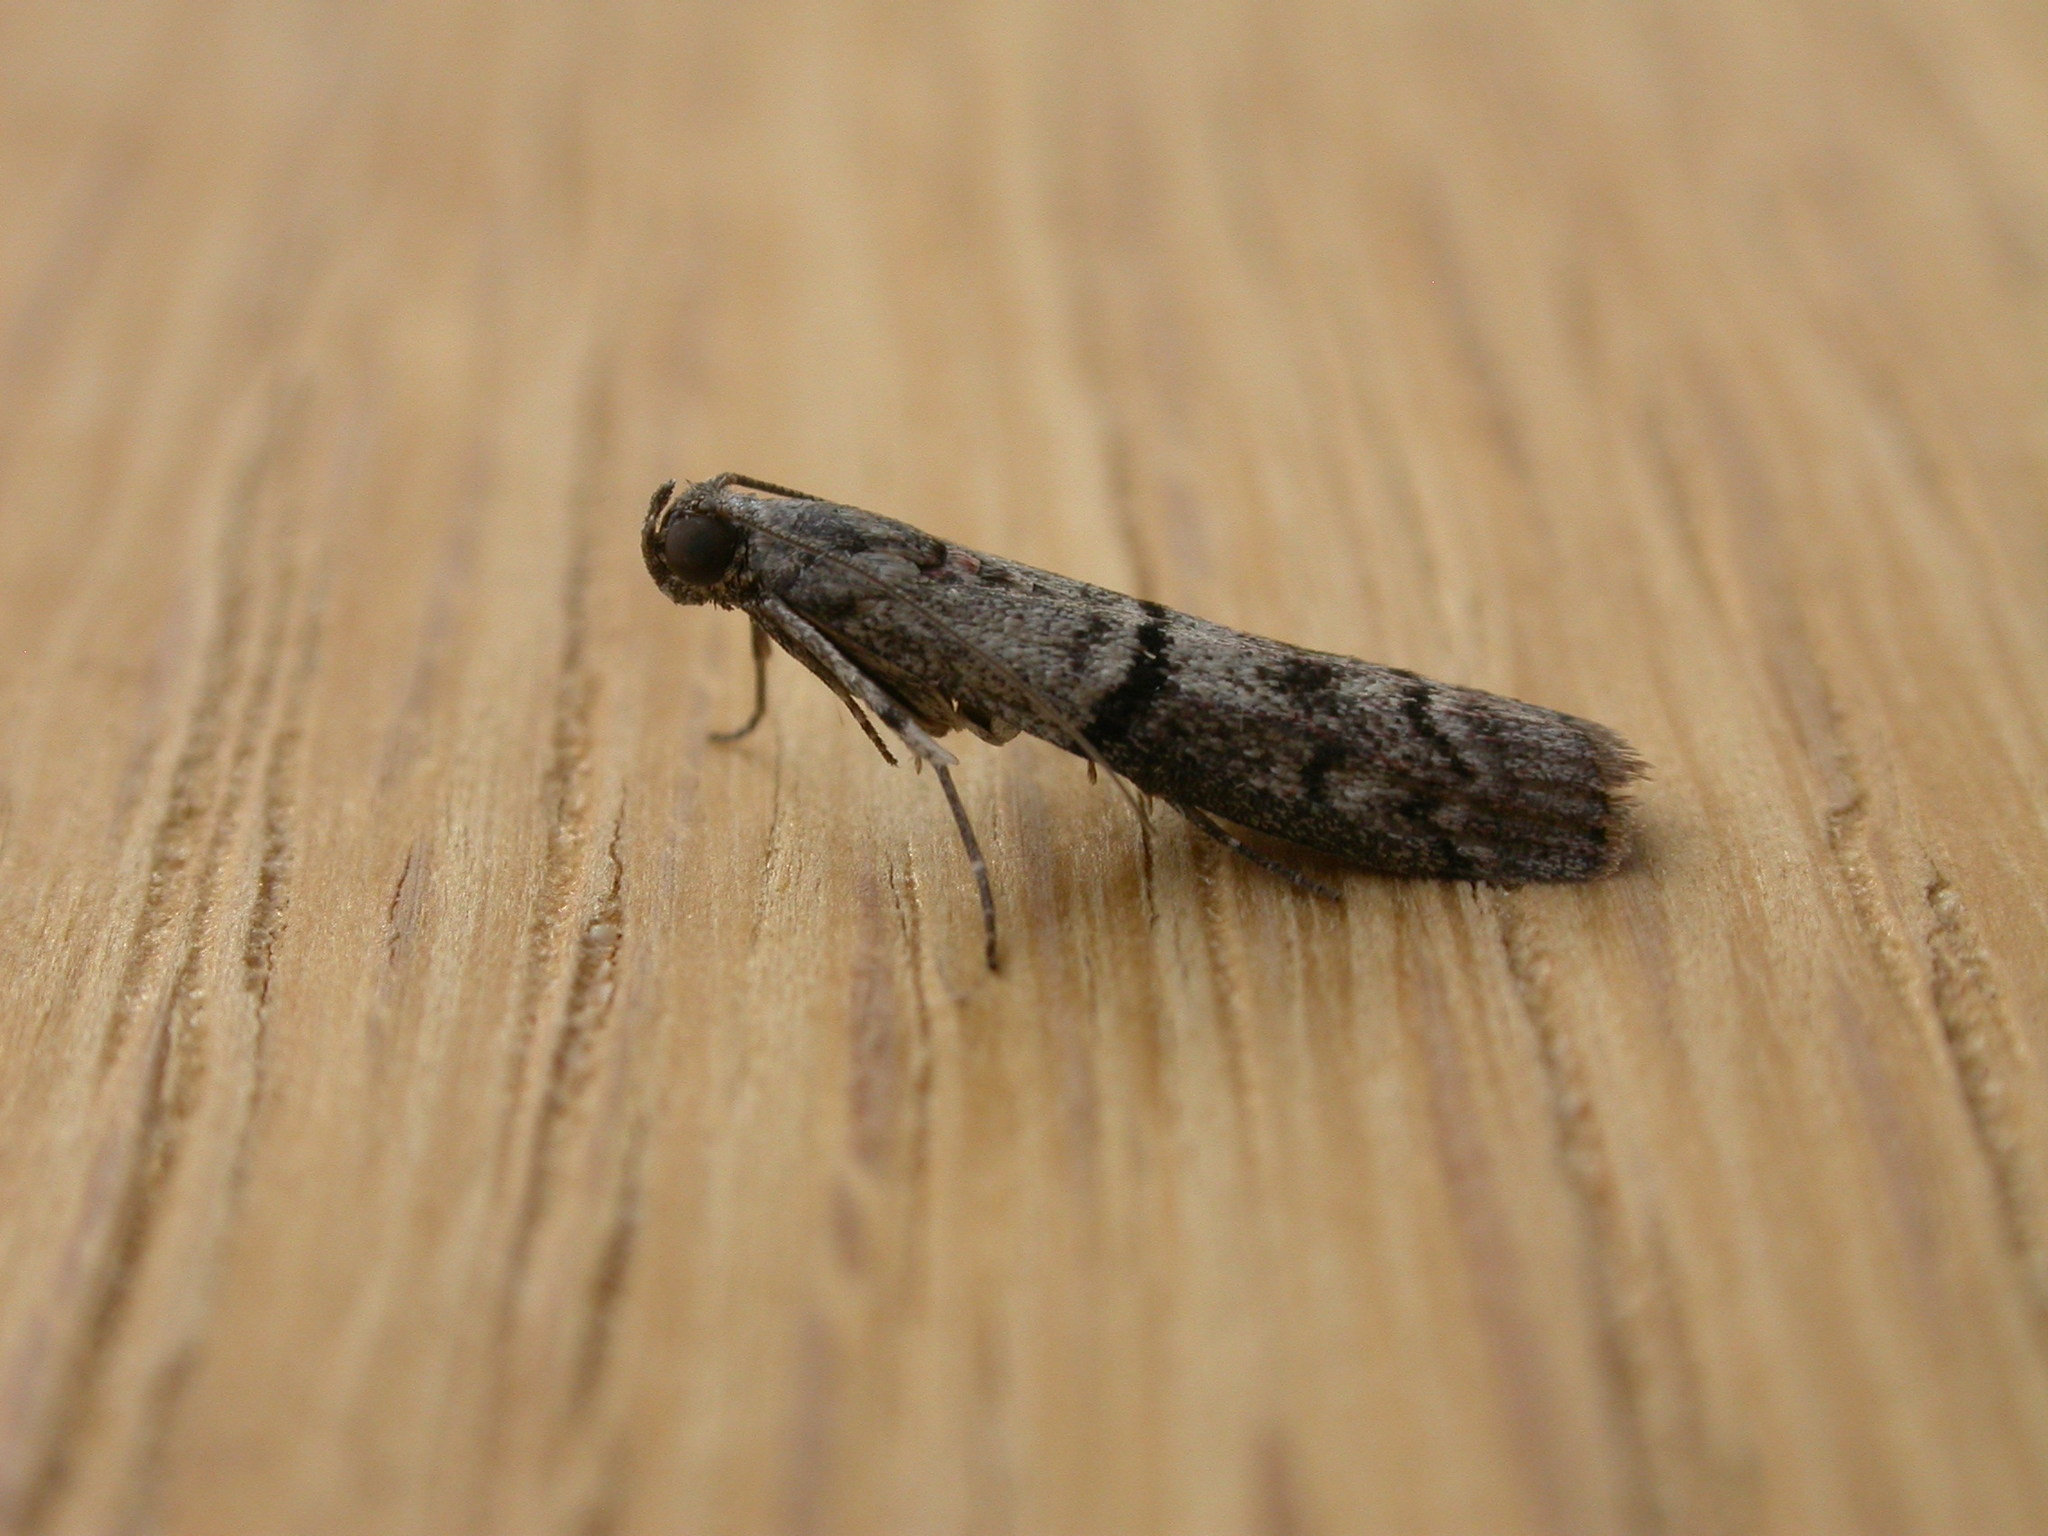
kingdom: Animalia
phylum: Arthropoda
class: Insecta
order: Lepidoptera
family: Pyralidae
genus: Cryptoblabes
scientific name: Cryptoblabes euraphella
